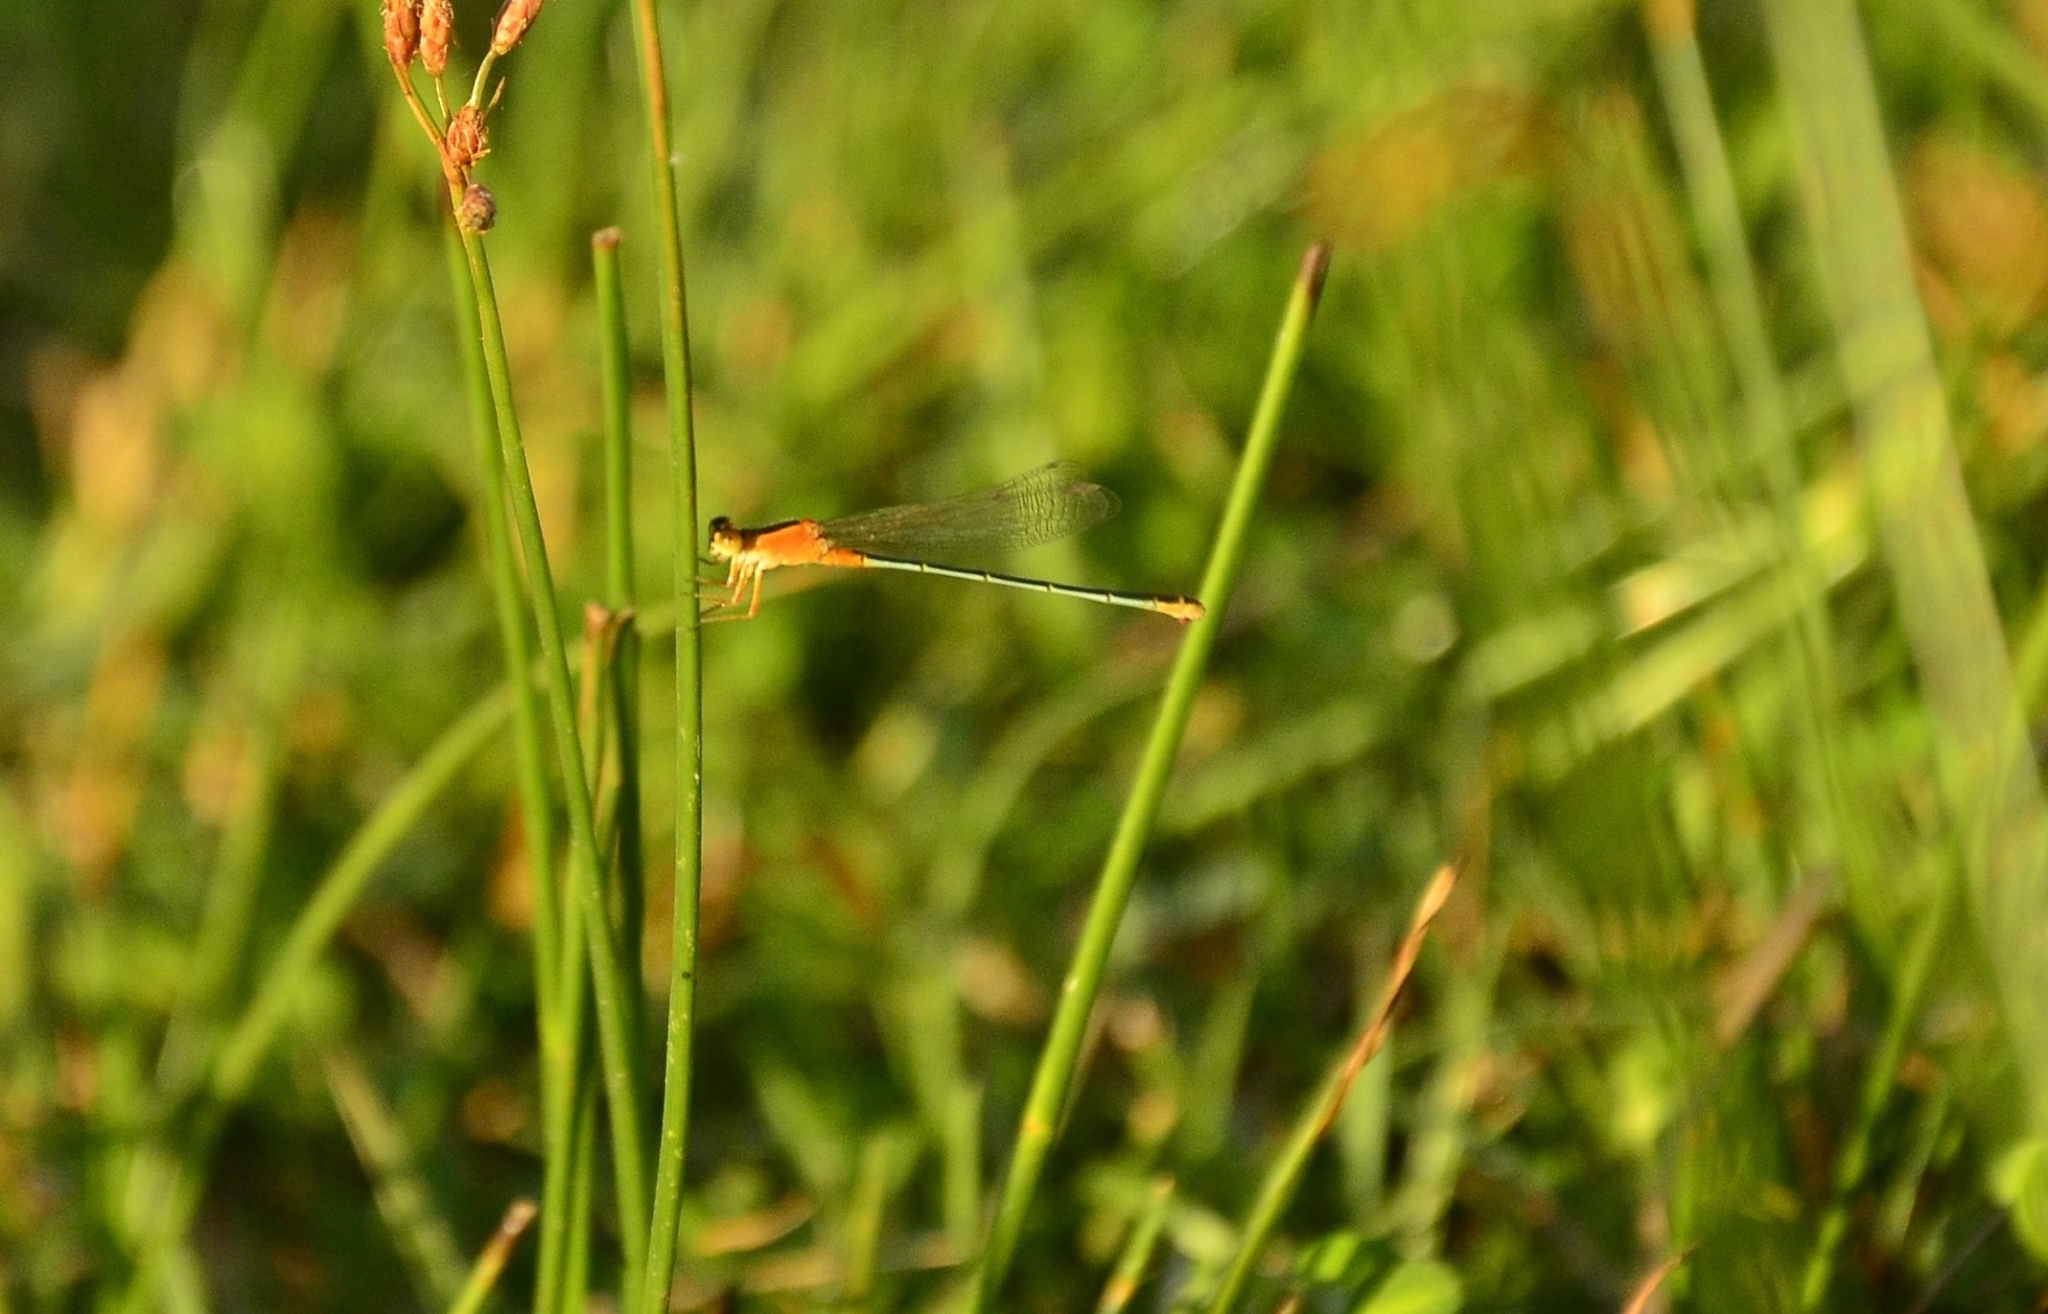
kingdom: Animalia
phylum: Arthropoda
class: Insecta
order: Odonata
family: Coenagrionidae
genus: Ischnura
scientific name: Ischnura senegalensis
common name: Tropical bluetail
